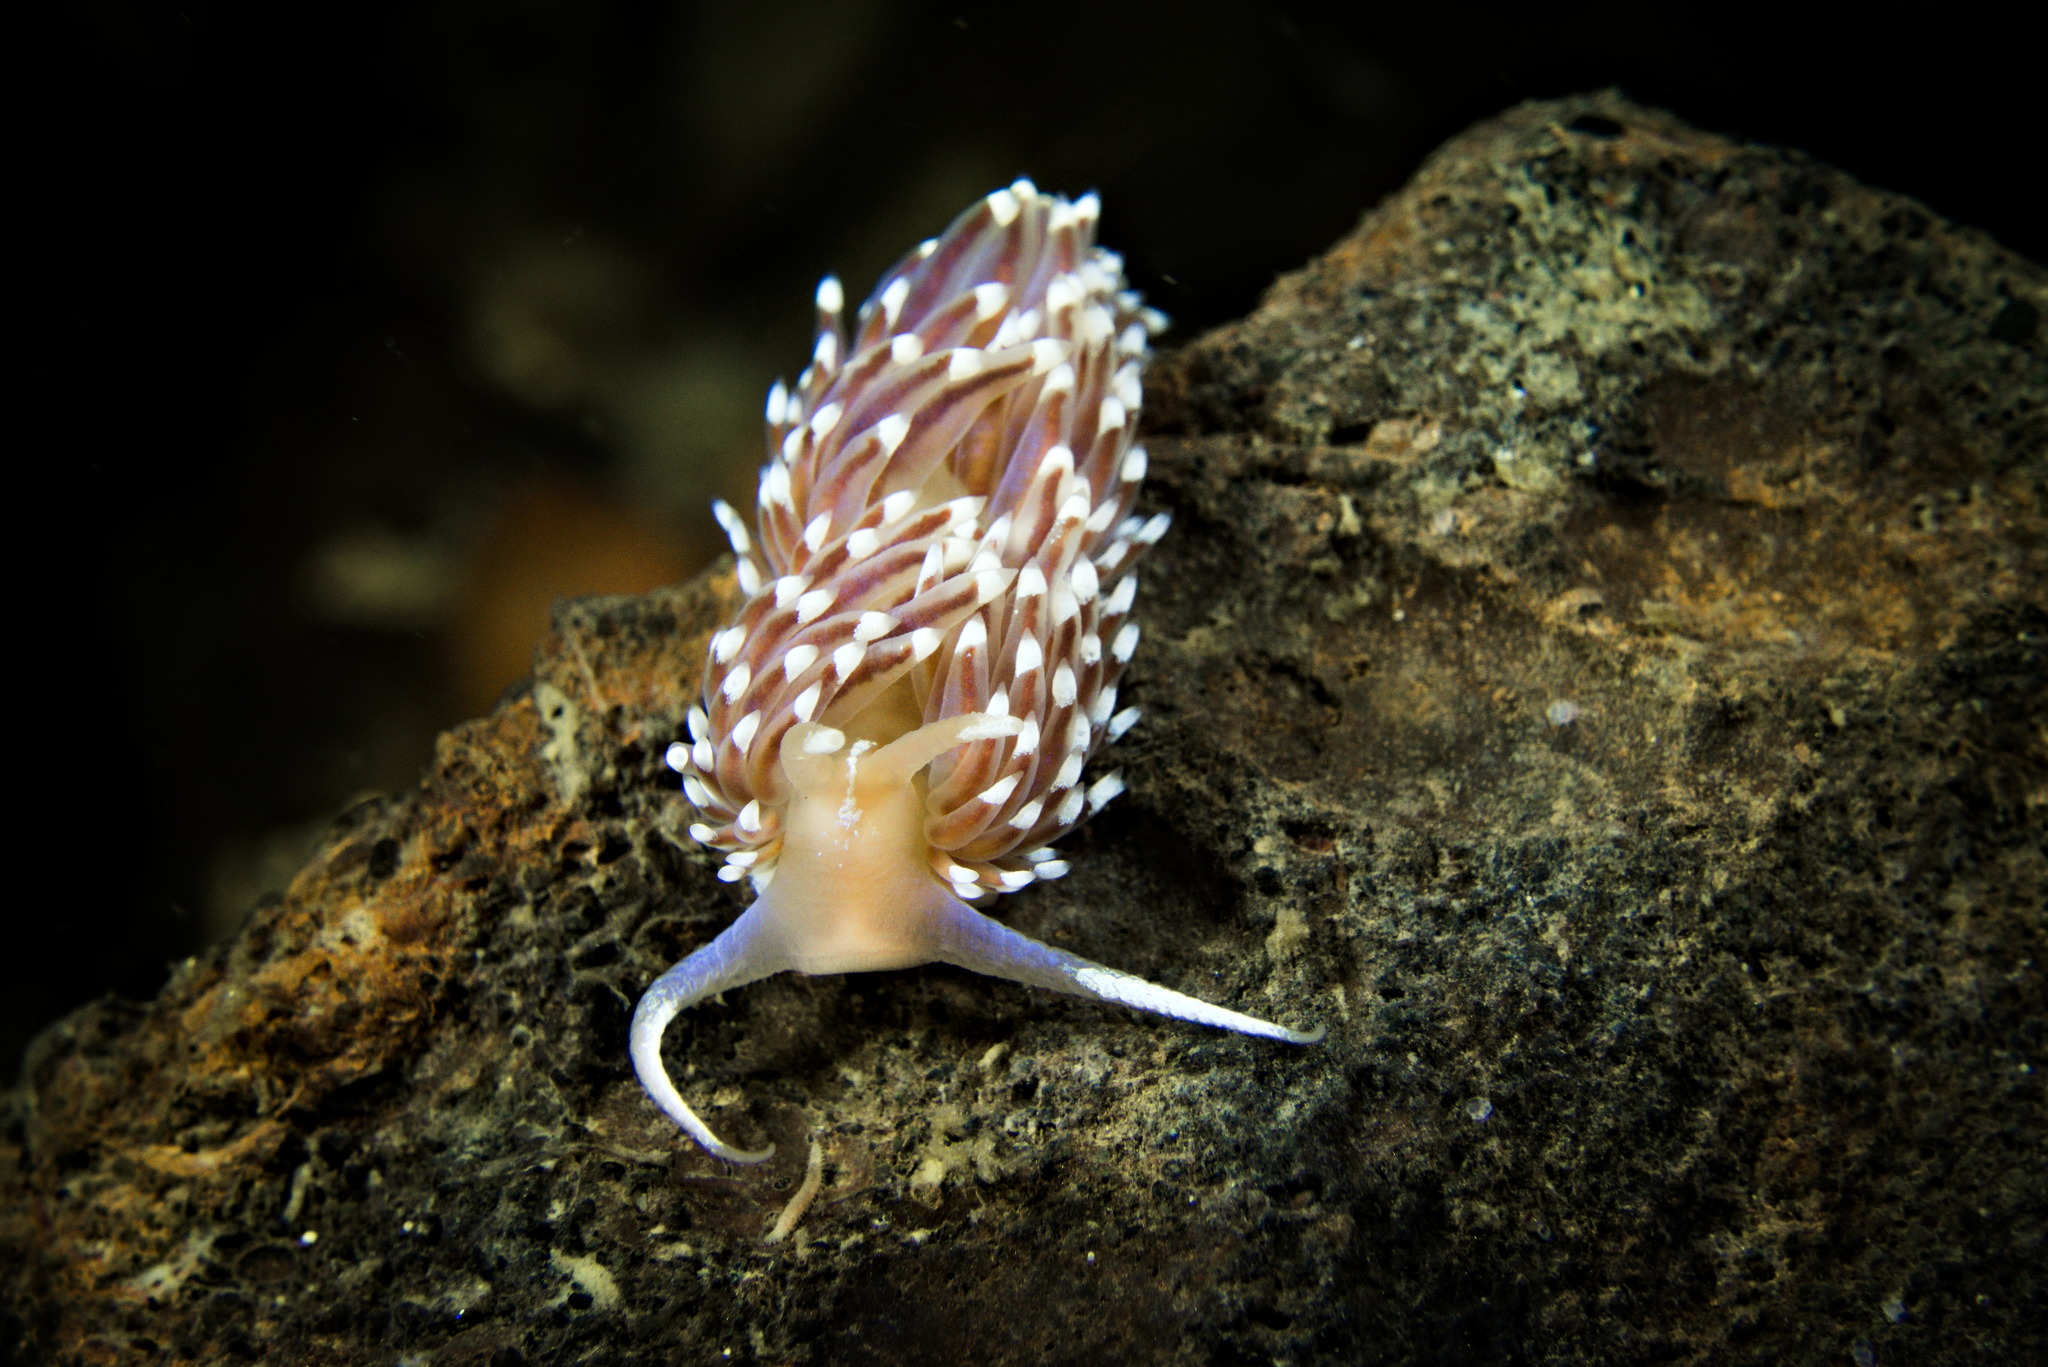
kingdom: Animalia
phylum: Mollusca
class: Gastropoda
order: Nudibranchia
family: Facelinidae
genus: Facelina
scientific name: Facelina bostoniensis
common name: Boston facelina
